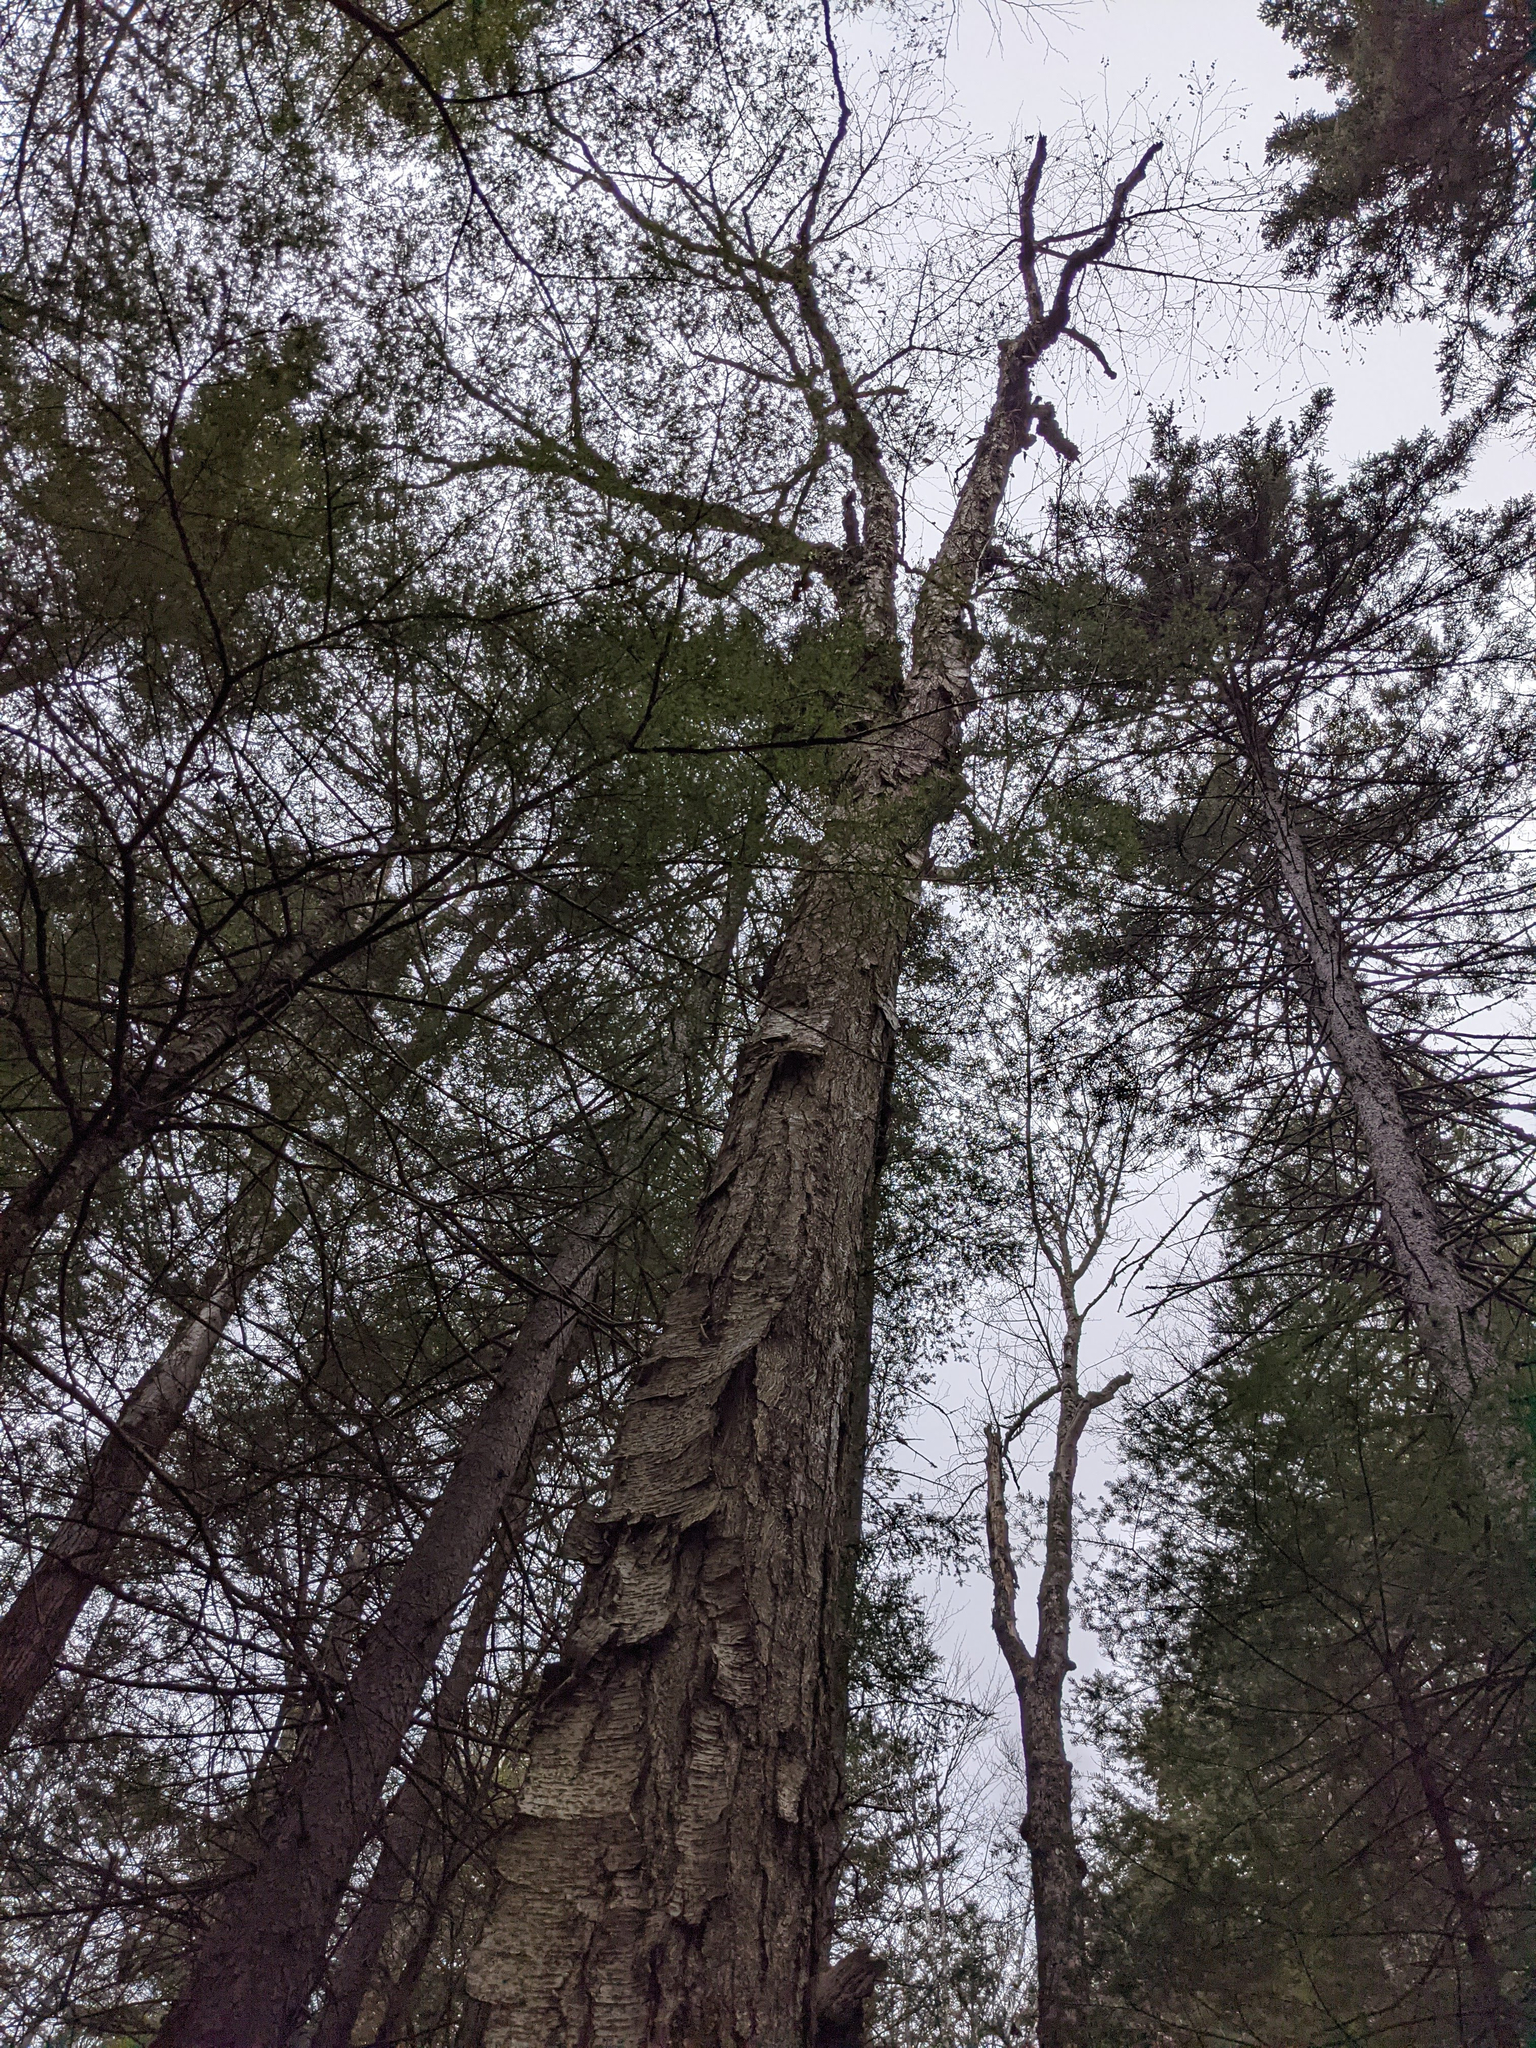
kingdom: Plantae
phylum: Tracheophyta
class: Magnoliopsida
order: Fagales
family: Betulaceae
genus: Betula
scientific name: Betula alleghaniensis
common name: Yellow birch
